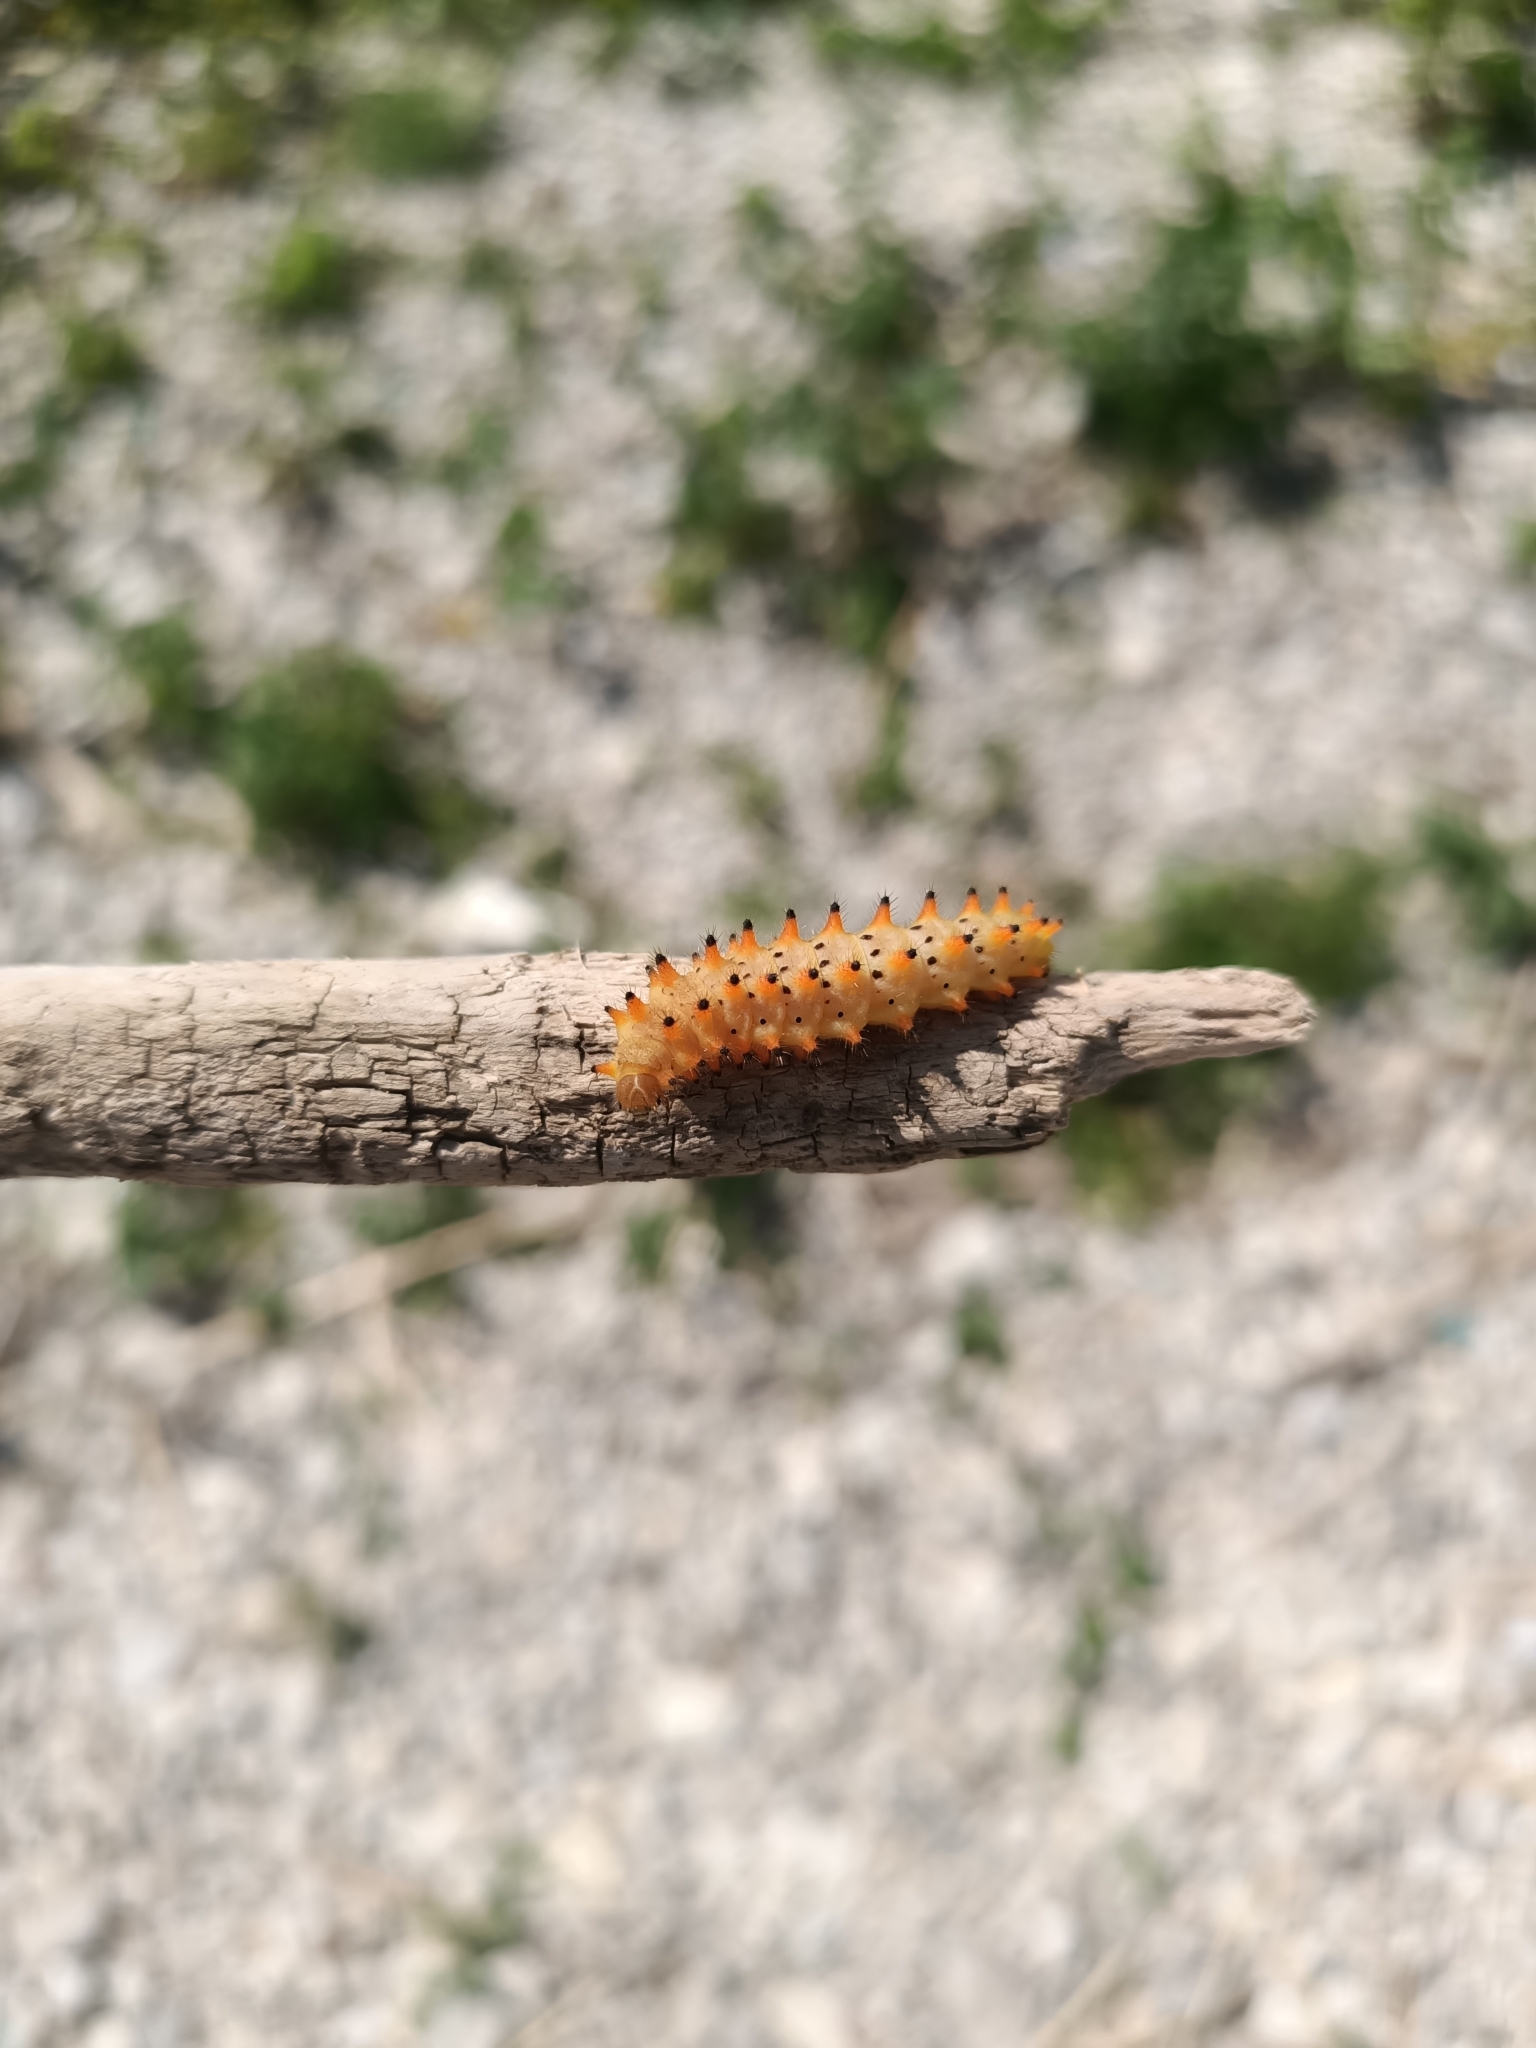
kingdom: Animalia
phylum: Arthropoda
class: Insecta
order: Lepidoptera
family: Papilionidae
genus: Zerynthia
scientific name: Zerynthia polyxena
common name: Southern festoon
